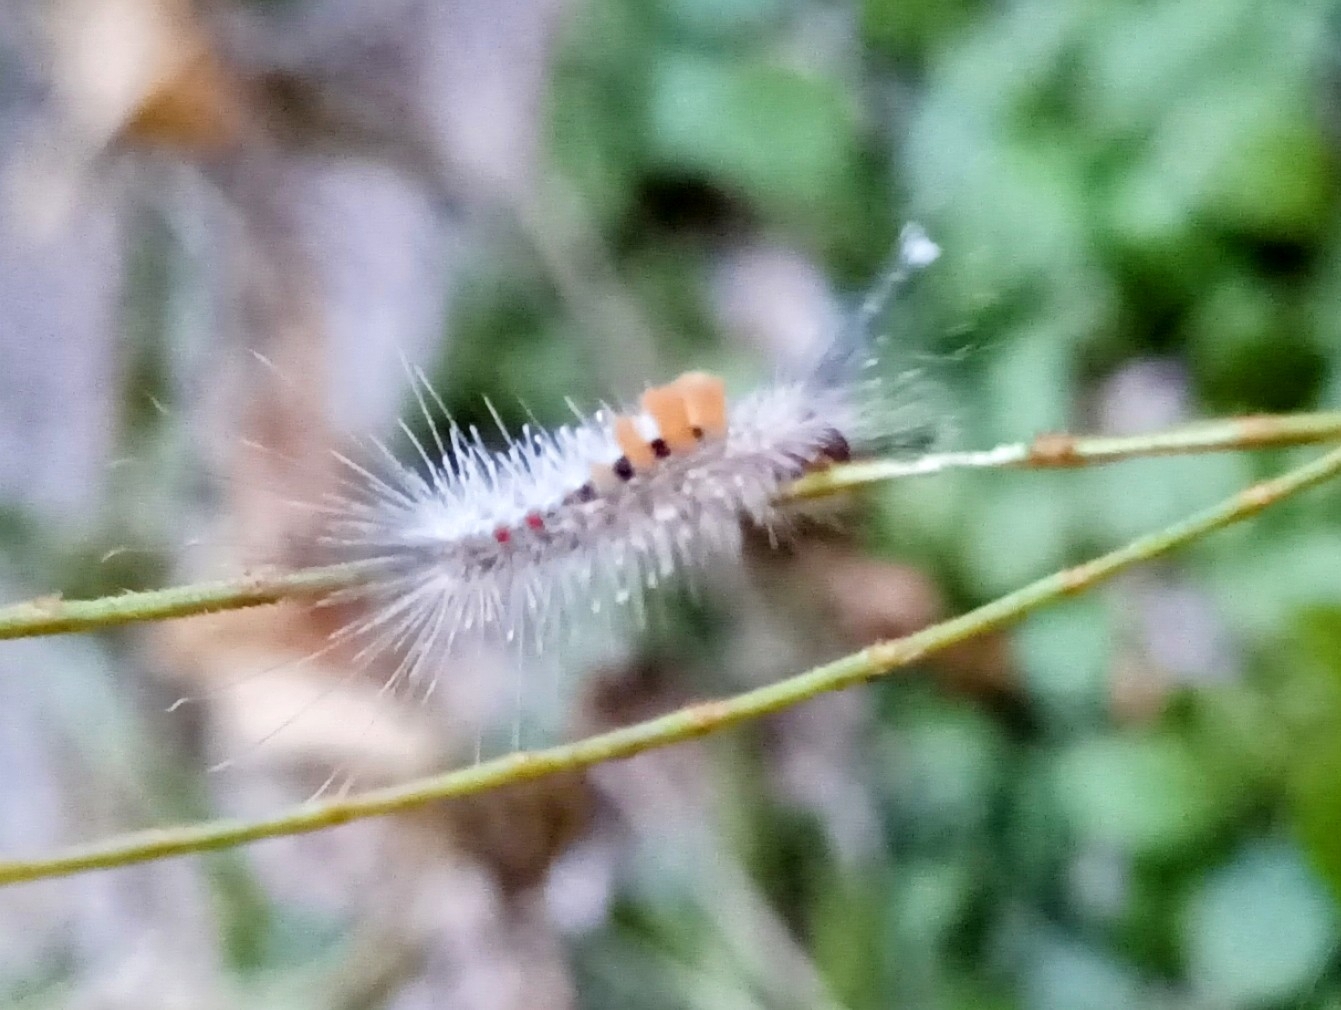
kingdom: Animalia
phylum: Arthropoda
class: Insecta
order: Lepidoptera
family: Erebidae
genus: Dasychira
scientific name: Dasychira chekiangensis
